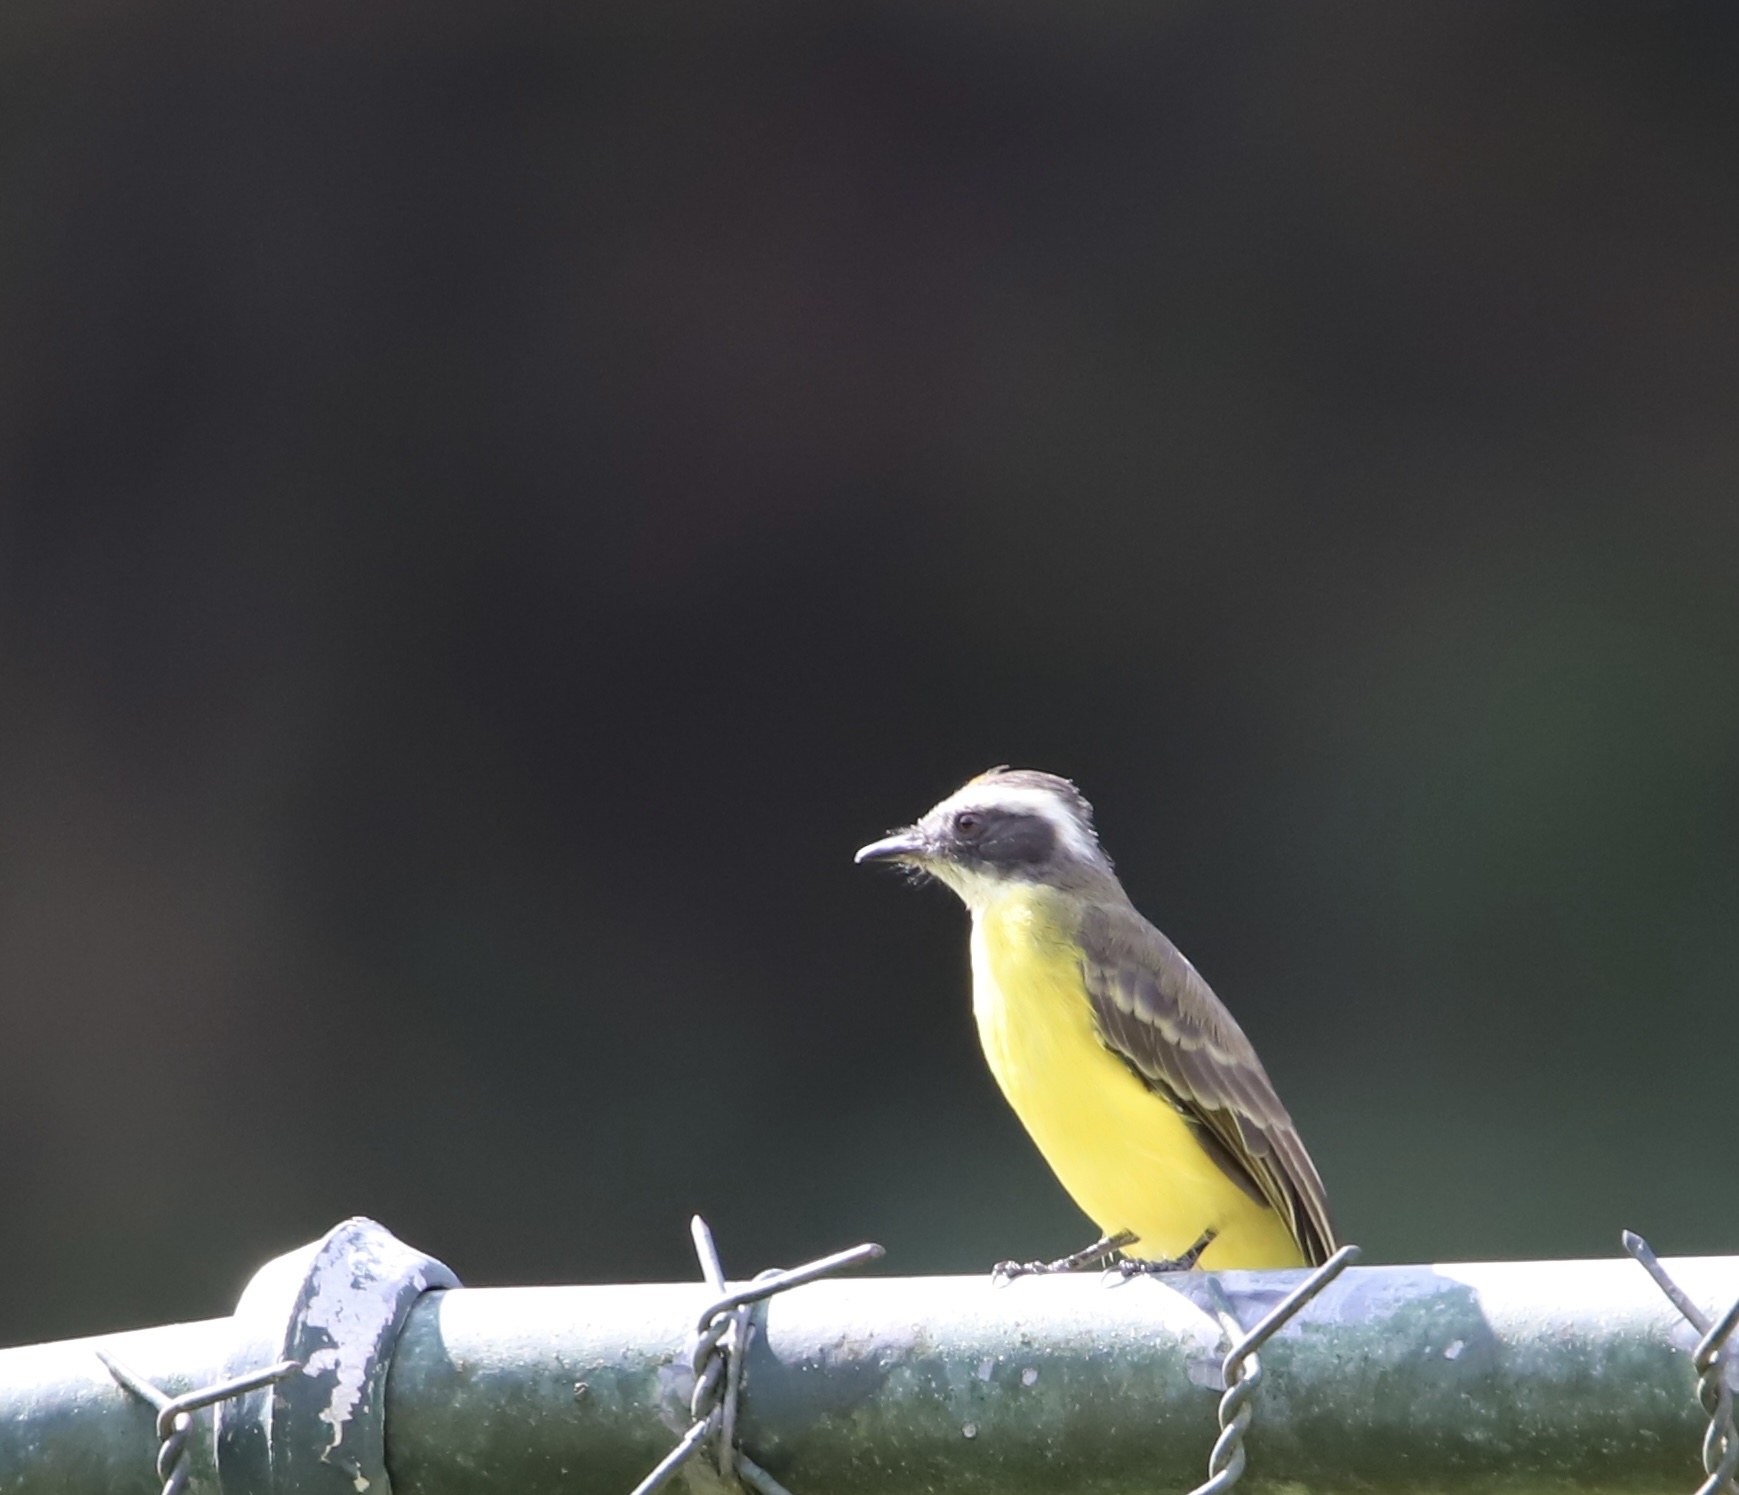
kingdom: Animalia
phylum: Chordata
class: Aves
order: Passeriformes
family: Tyrannidae
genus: Myiozetetes
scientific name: Myiozetetes similis
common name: Social flycatcher
